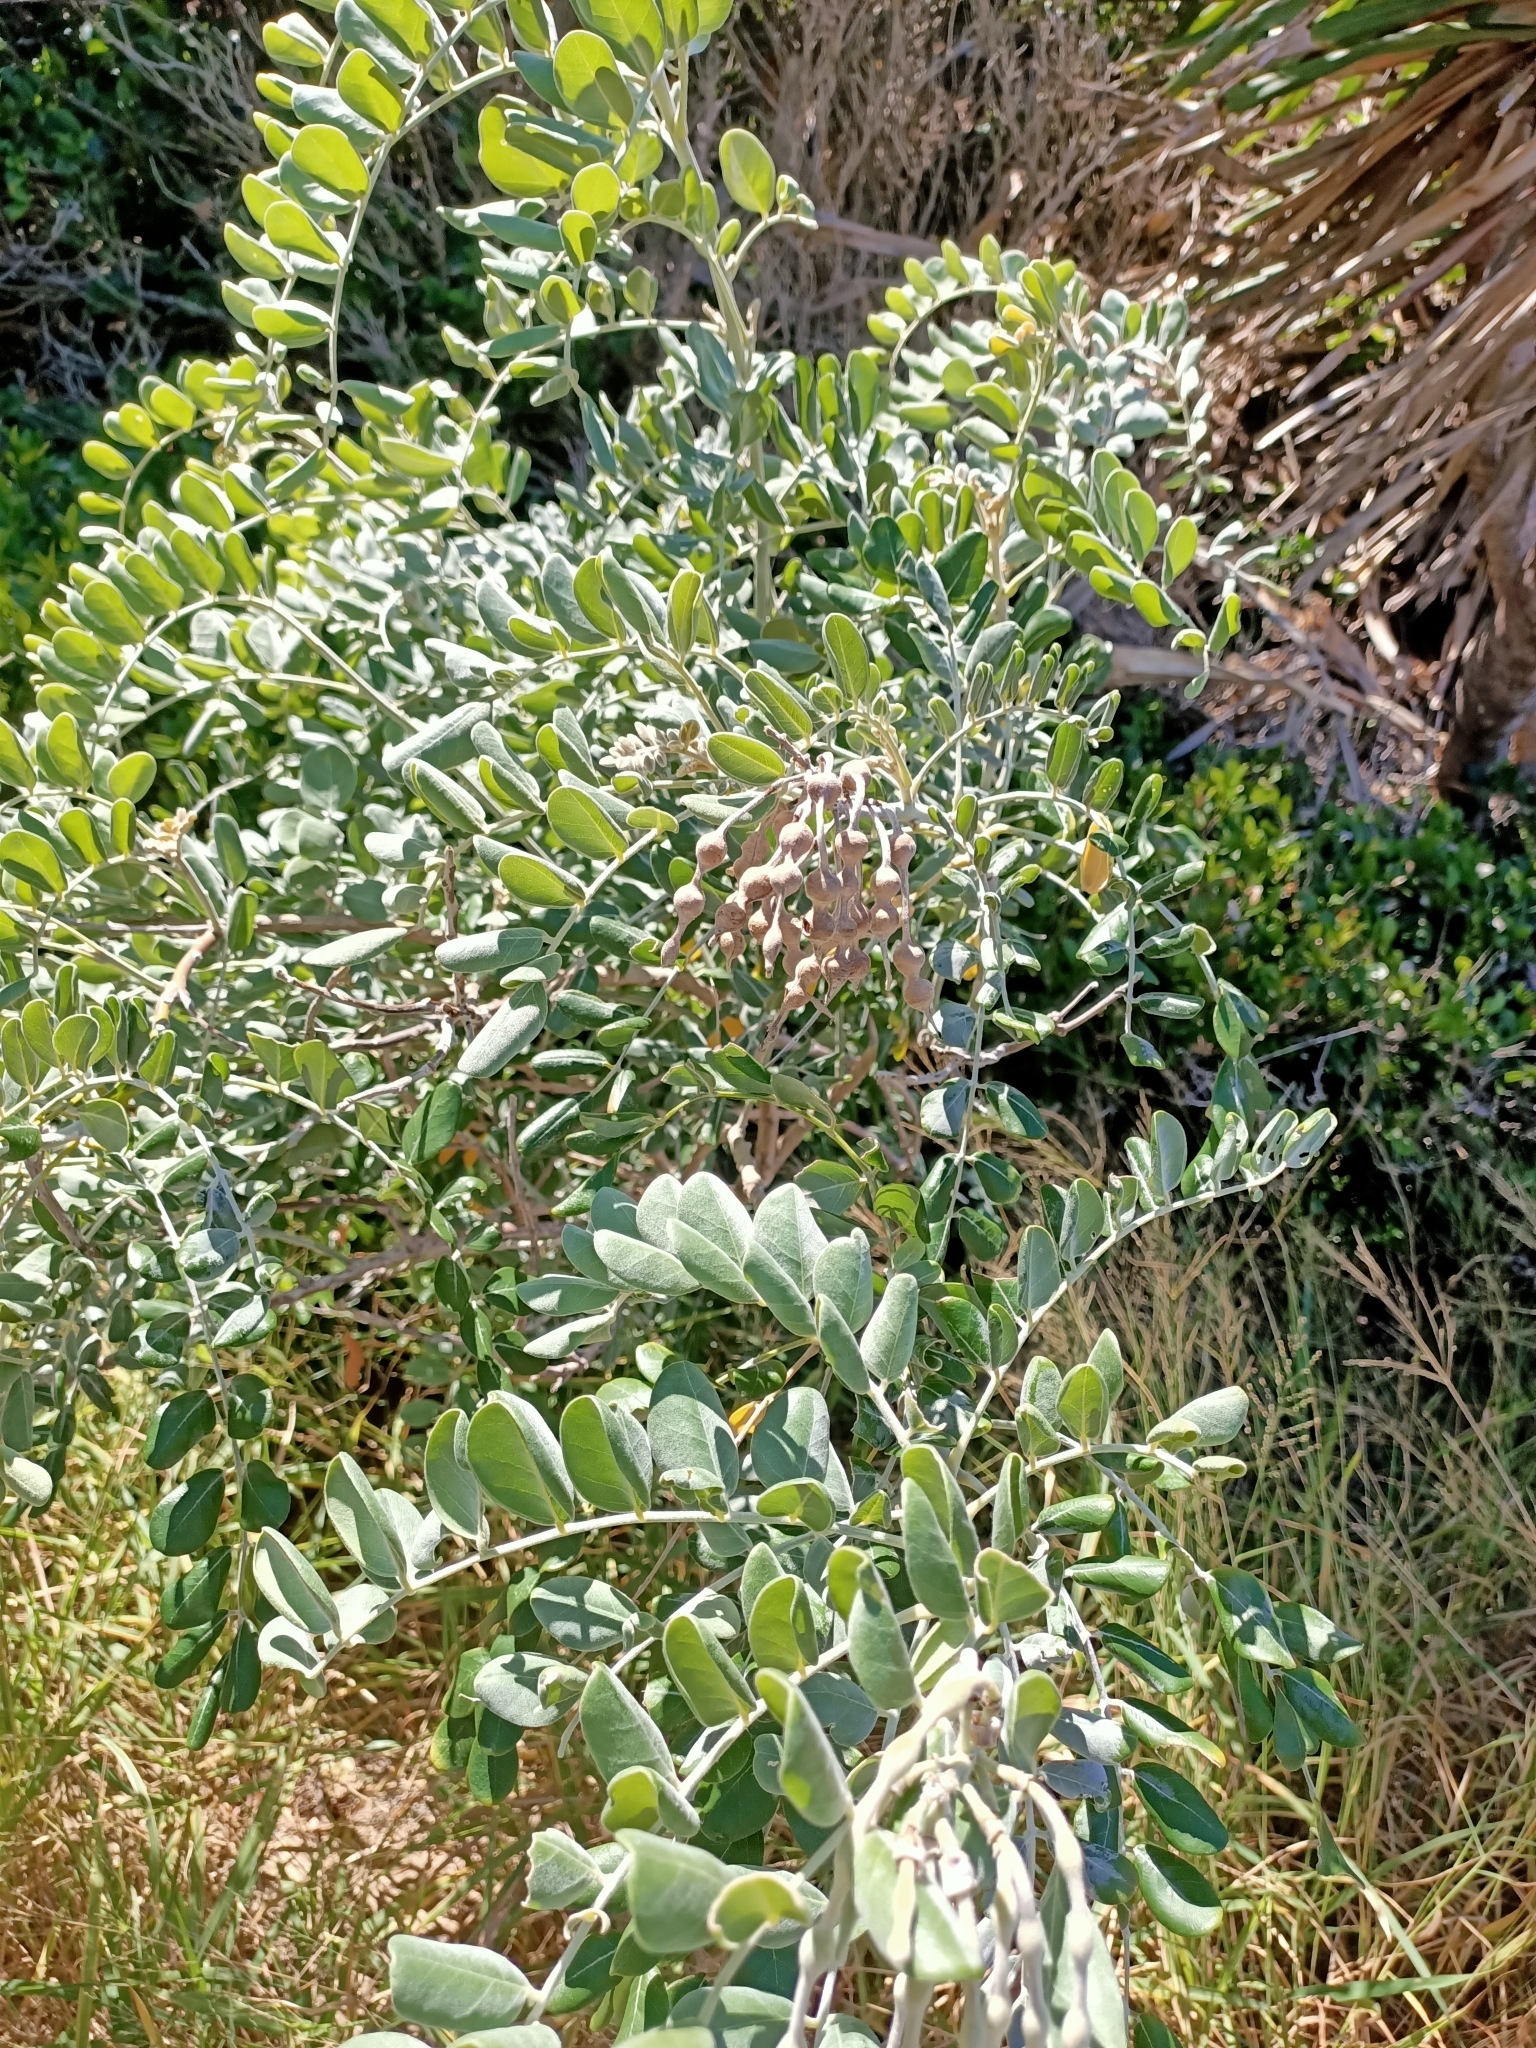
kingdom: Plantae
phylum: Tracheophyta
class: Magnoliopsida
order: Fabales
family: Fabaceae
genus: Sophora
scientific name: Sophora tomentosa
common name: Yellow necklacepod
